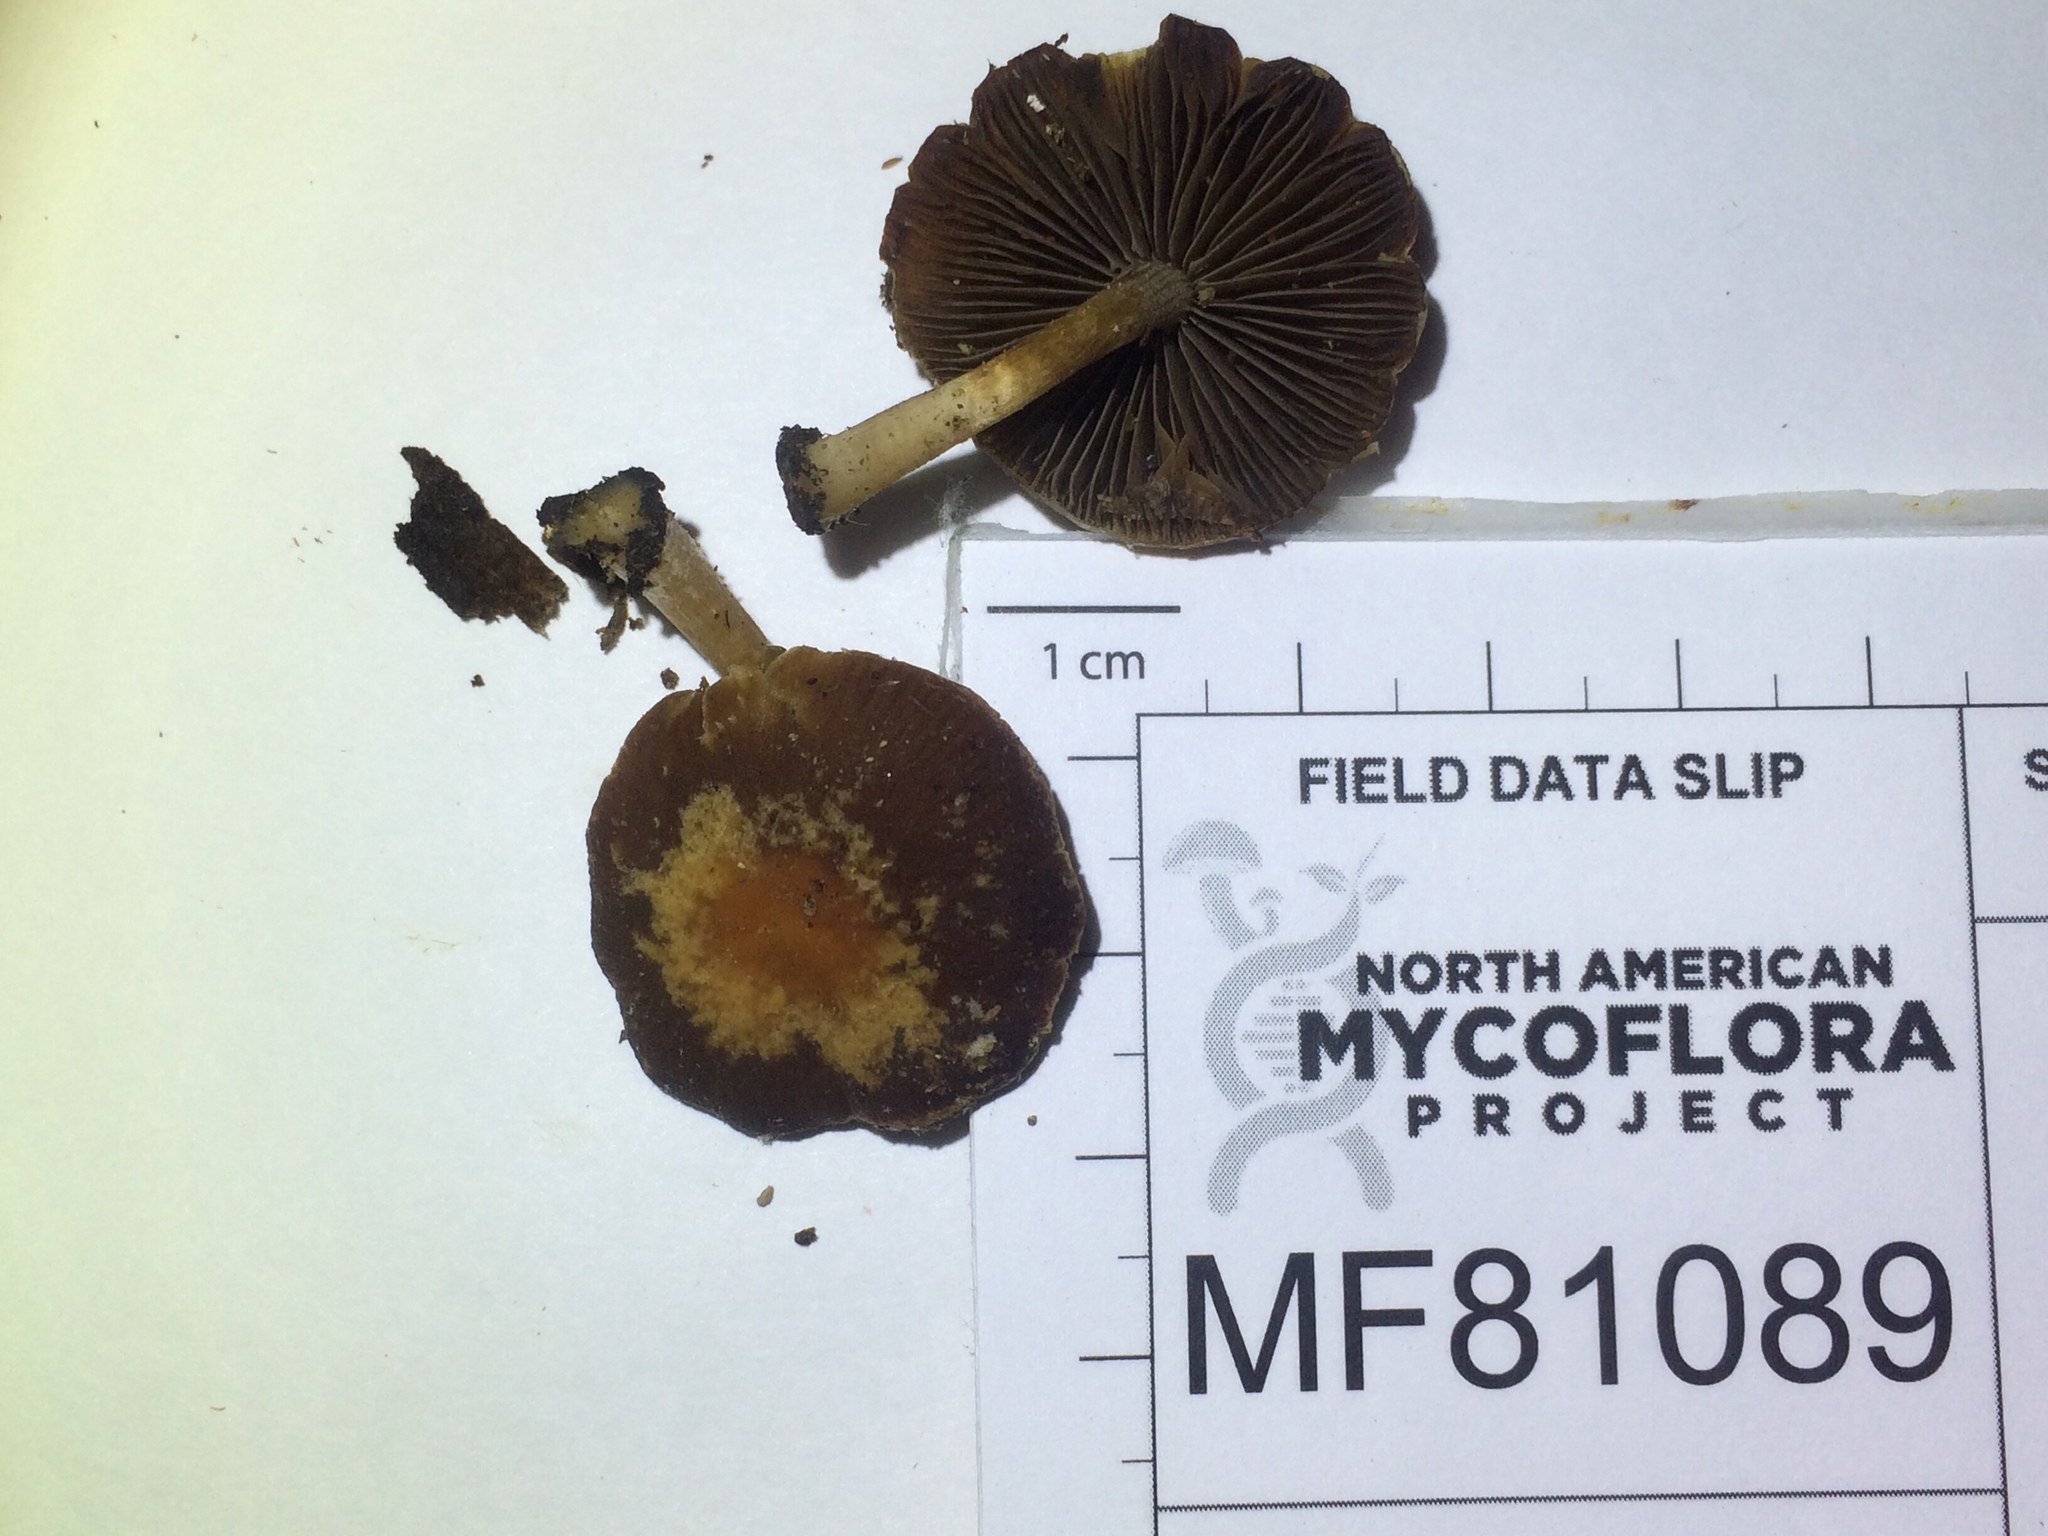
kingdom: Fungi
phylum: Basidiomycota
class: Agaricomycetes
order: Agaricales
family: Psathyrellaceae
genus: Psathyrella
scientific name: Psathyrella septentrionalis
